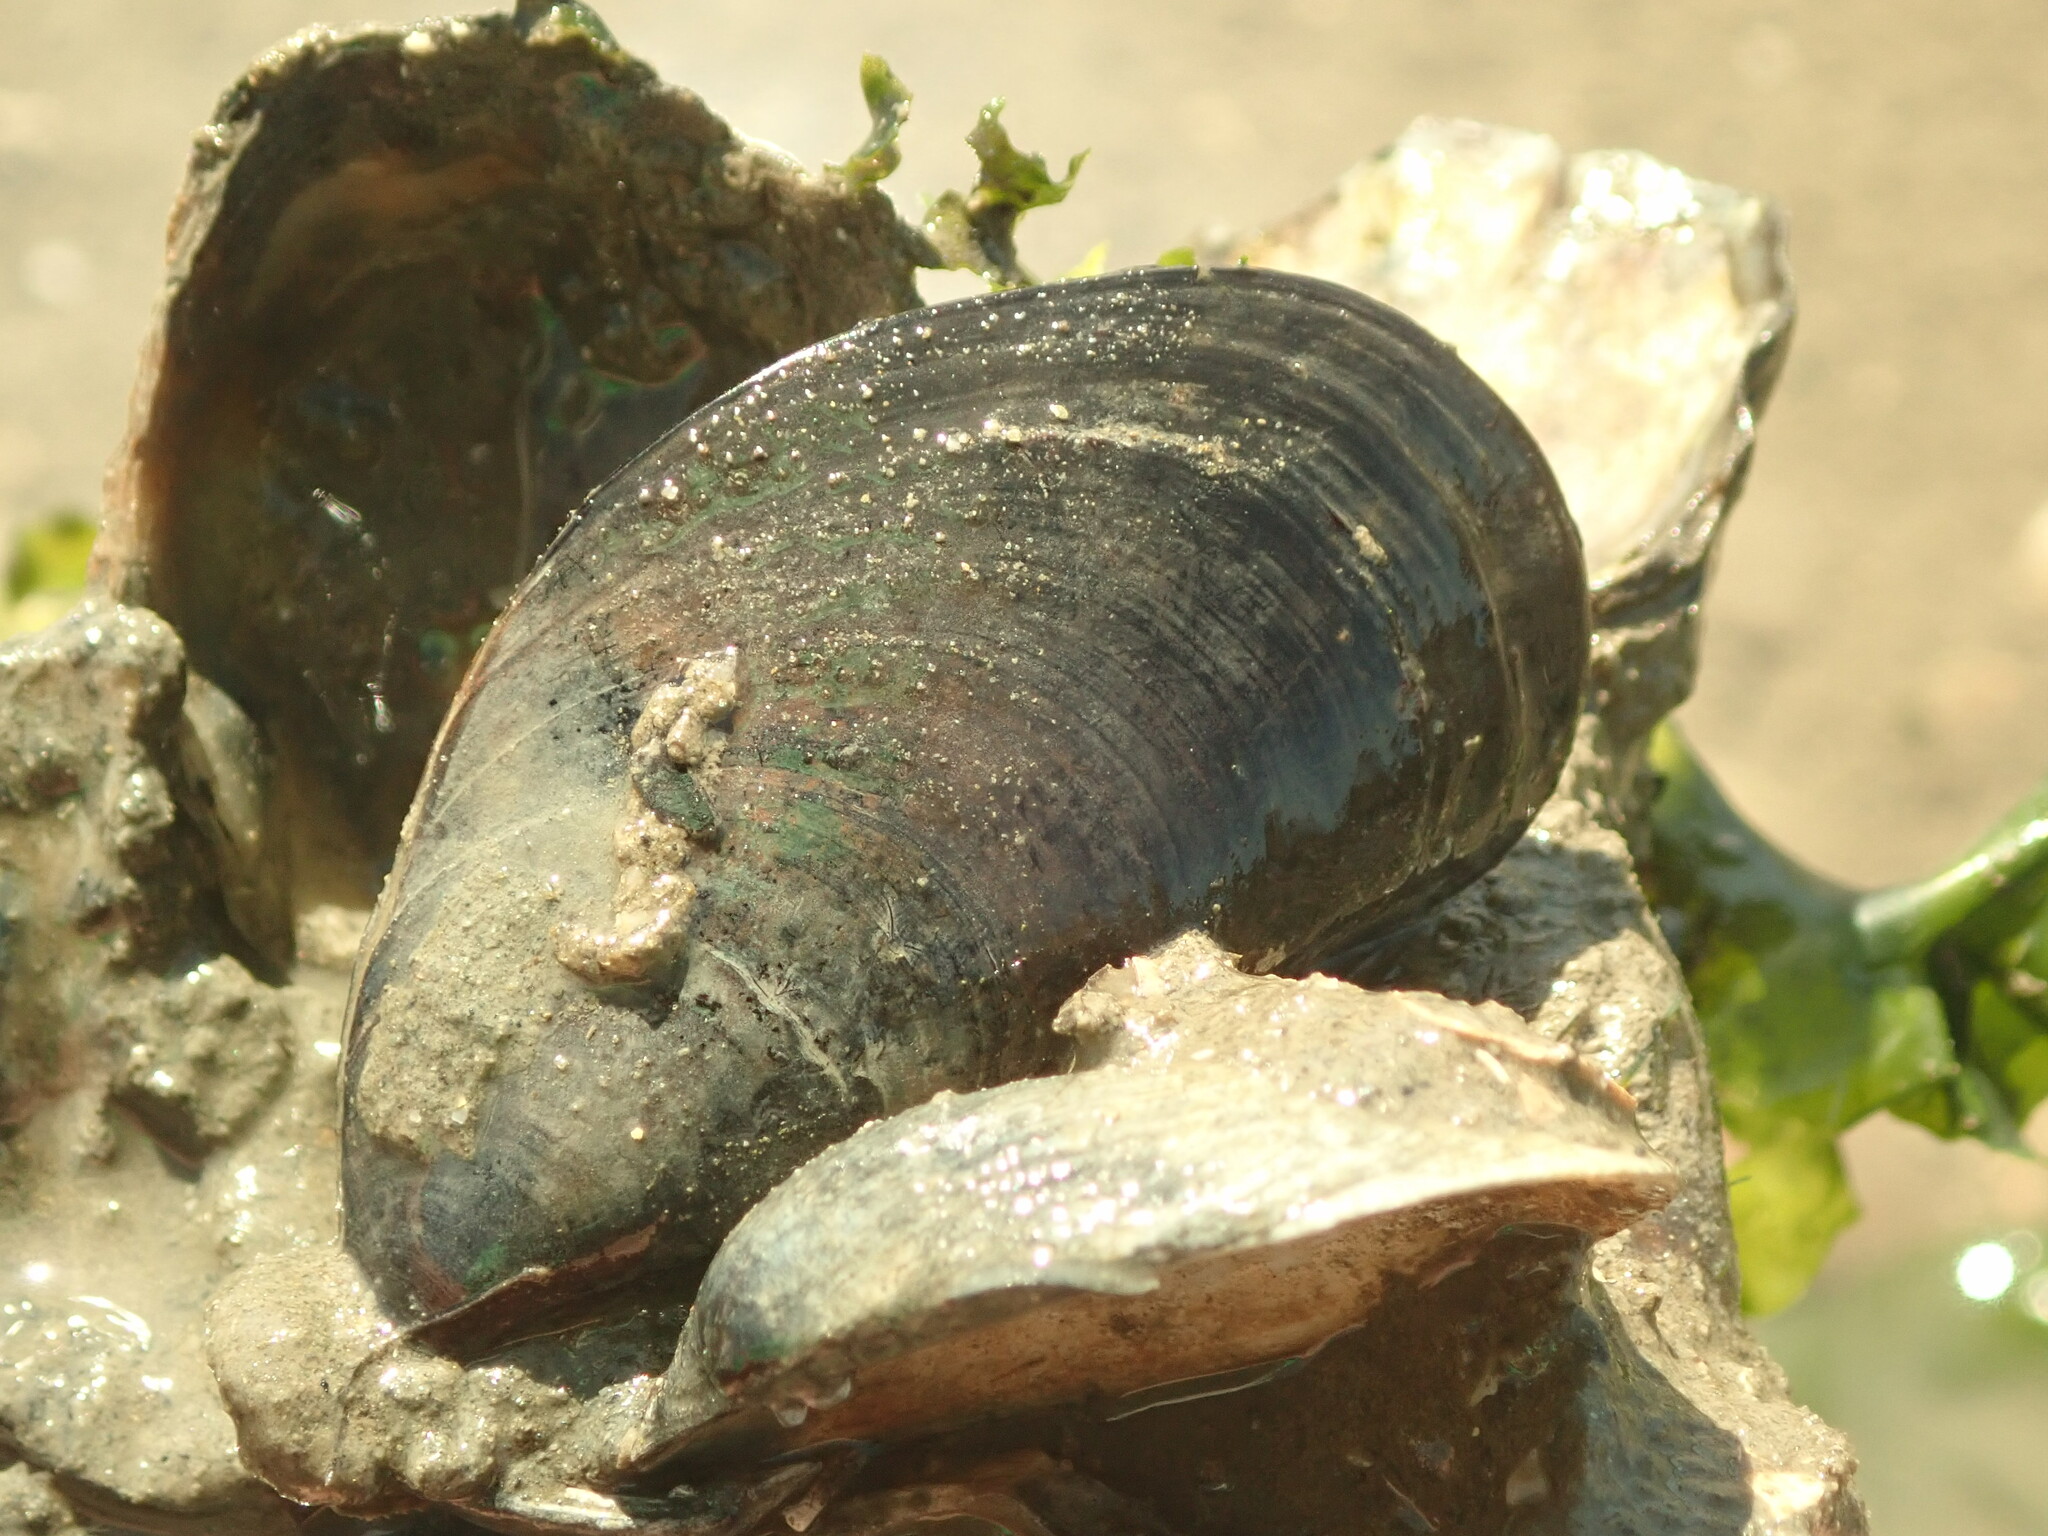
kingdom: Animalia
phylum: Mollusca
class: Bivalvia
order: Mytilida
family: Mytilidae
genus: Mytilus
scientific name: Mytilus
